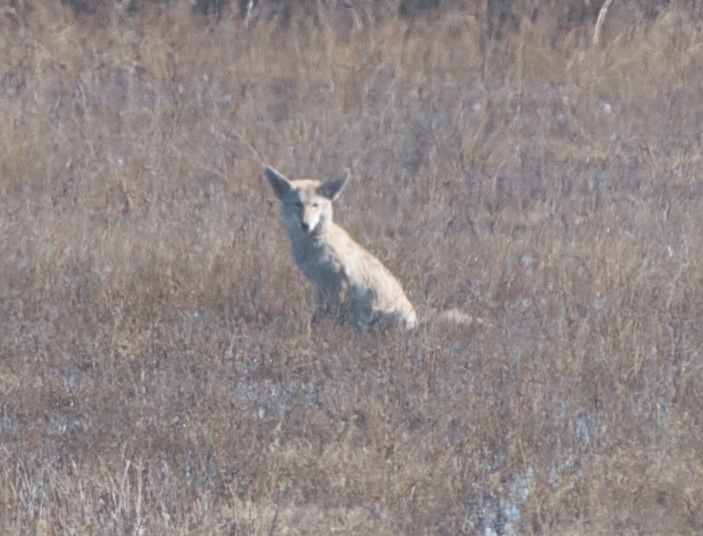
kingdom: Animalia
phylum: Chordata
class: Mammalia
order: Carnivora
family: Canidae
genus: Canis
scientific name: Canis latrans
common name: Coyote
